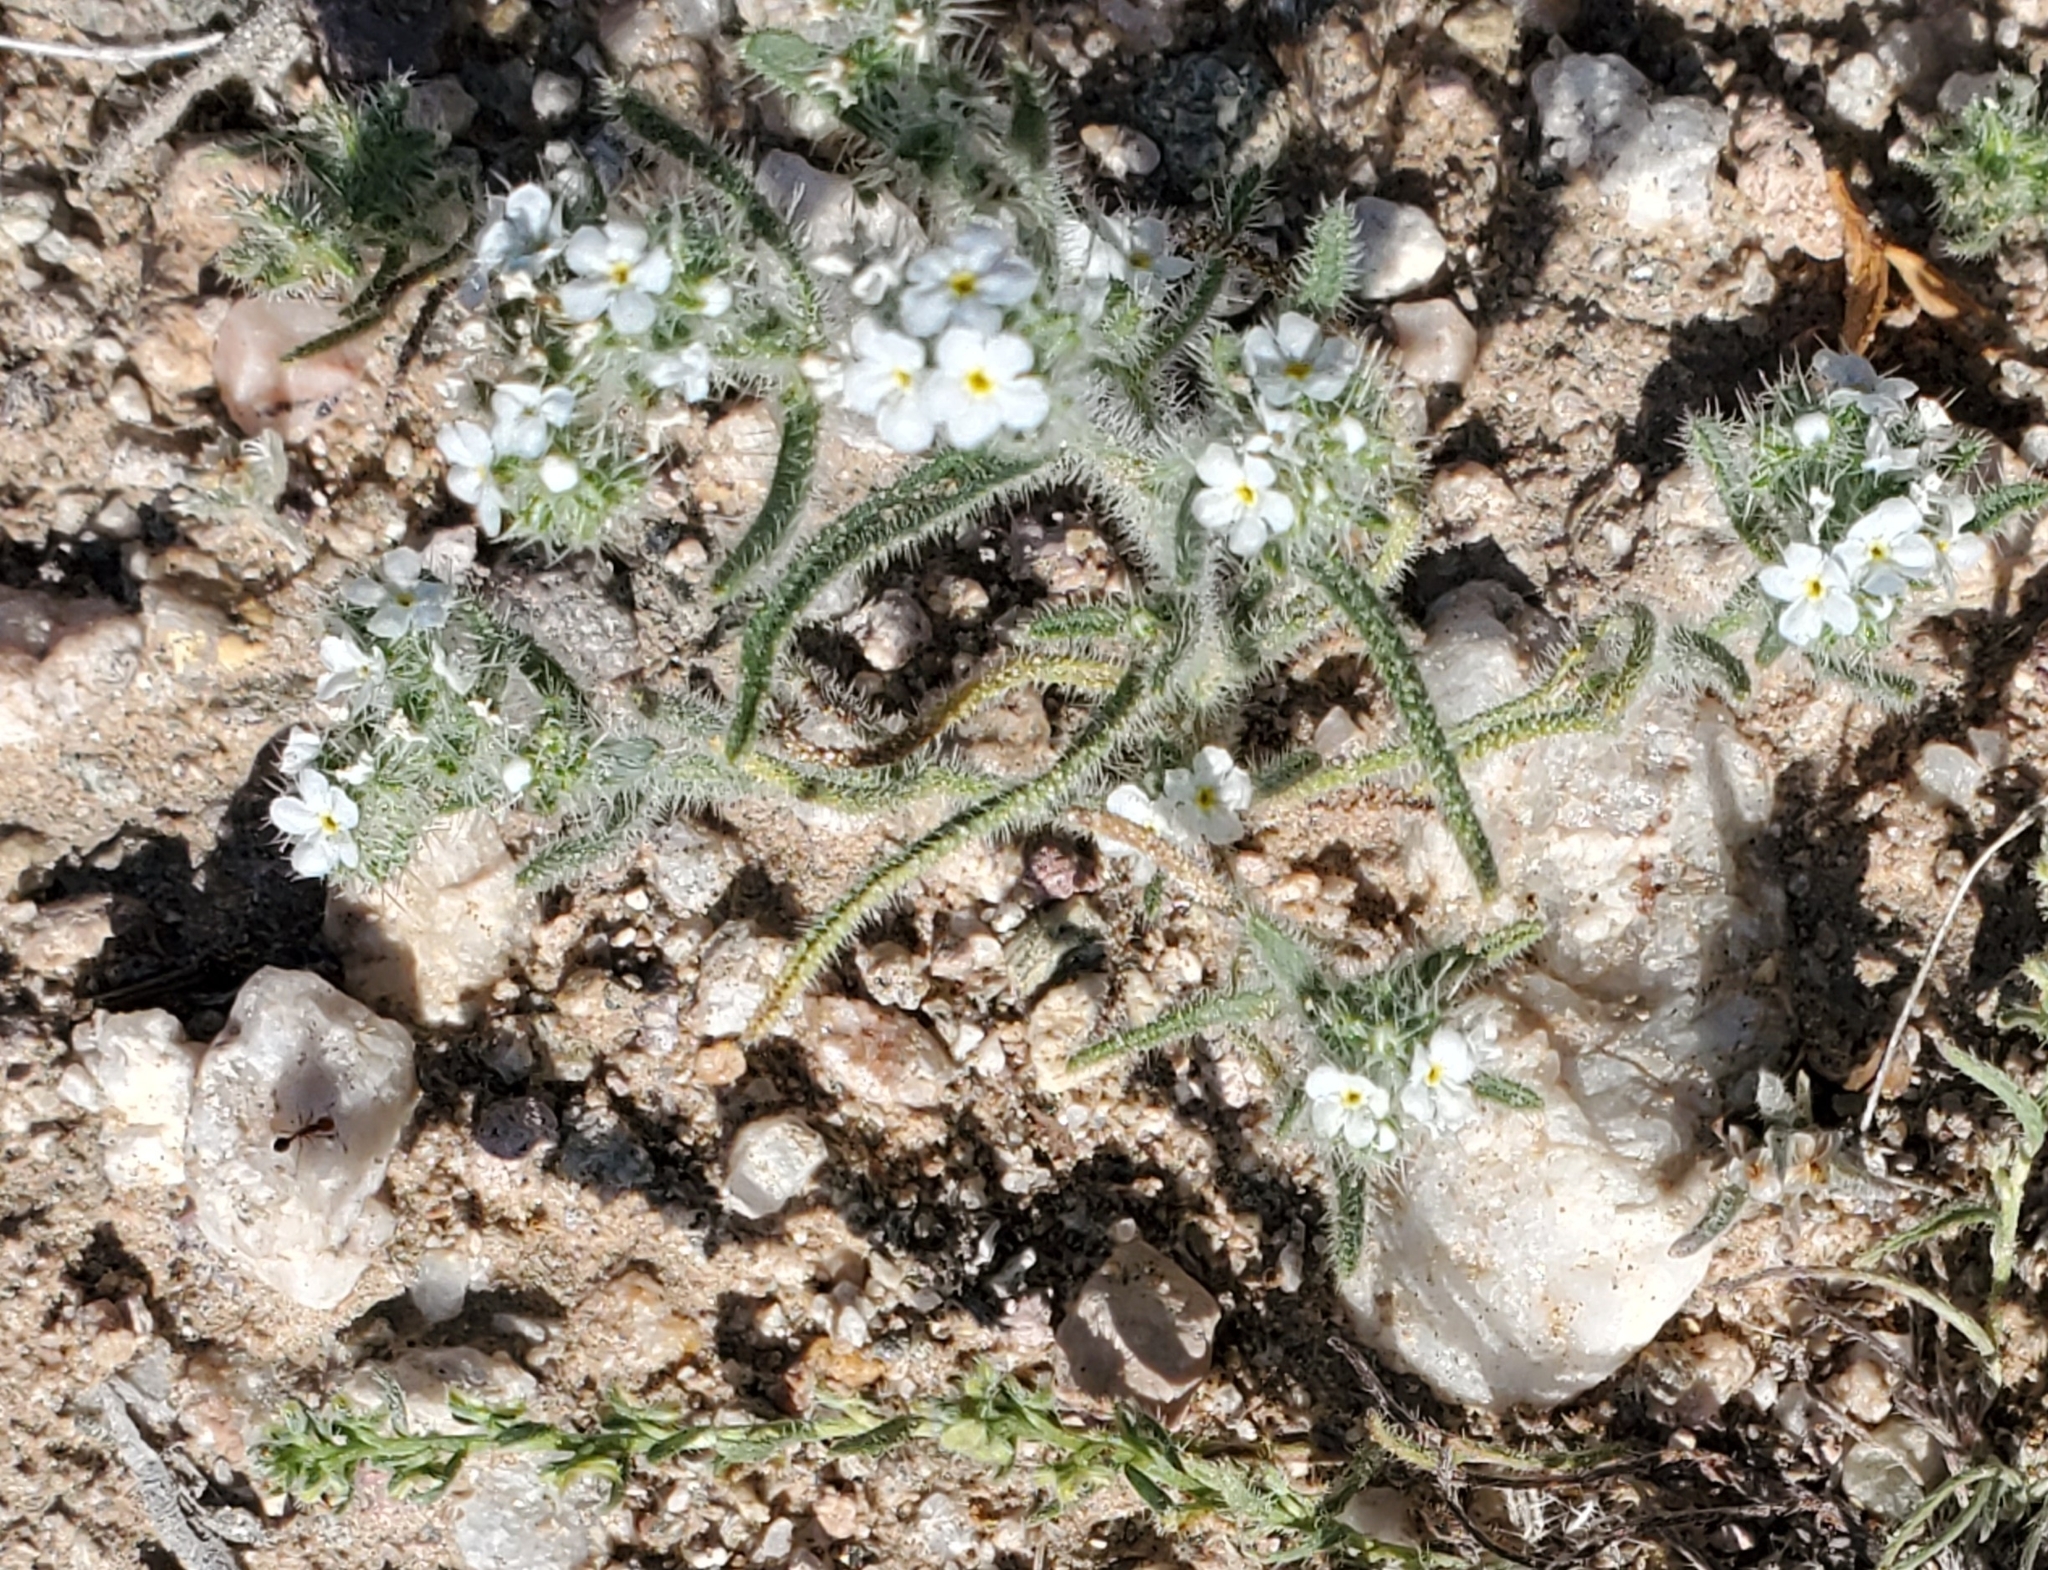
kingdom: Plantae
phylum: Tracheophyta
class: Magnoliopsida
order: Boraginales
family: Boraginaceae
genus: Johnstonella
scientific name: Johnstonella angustifolia
